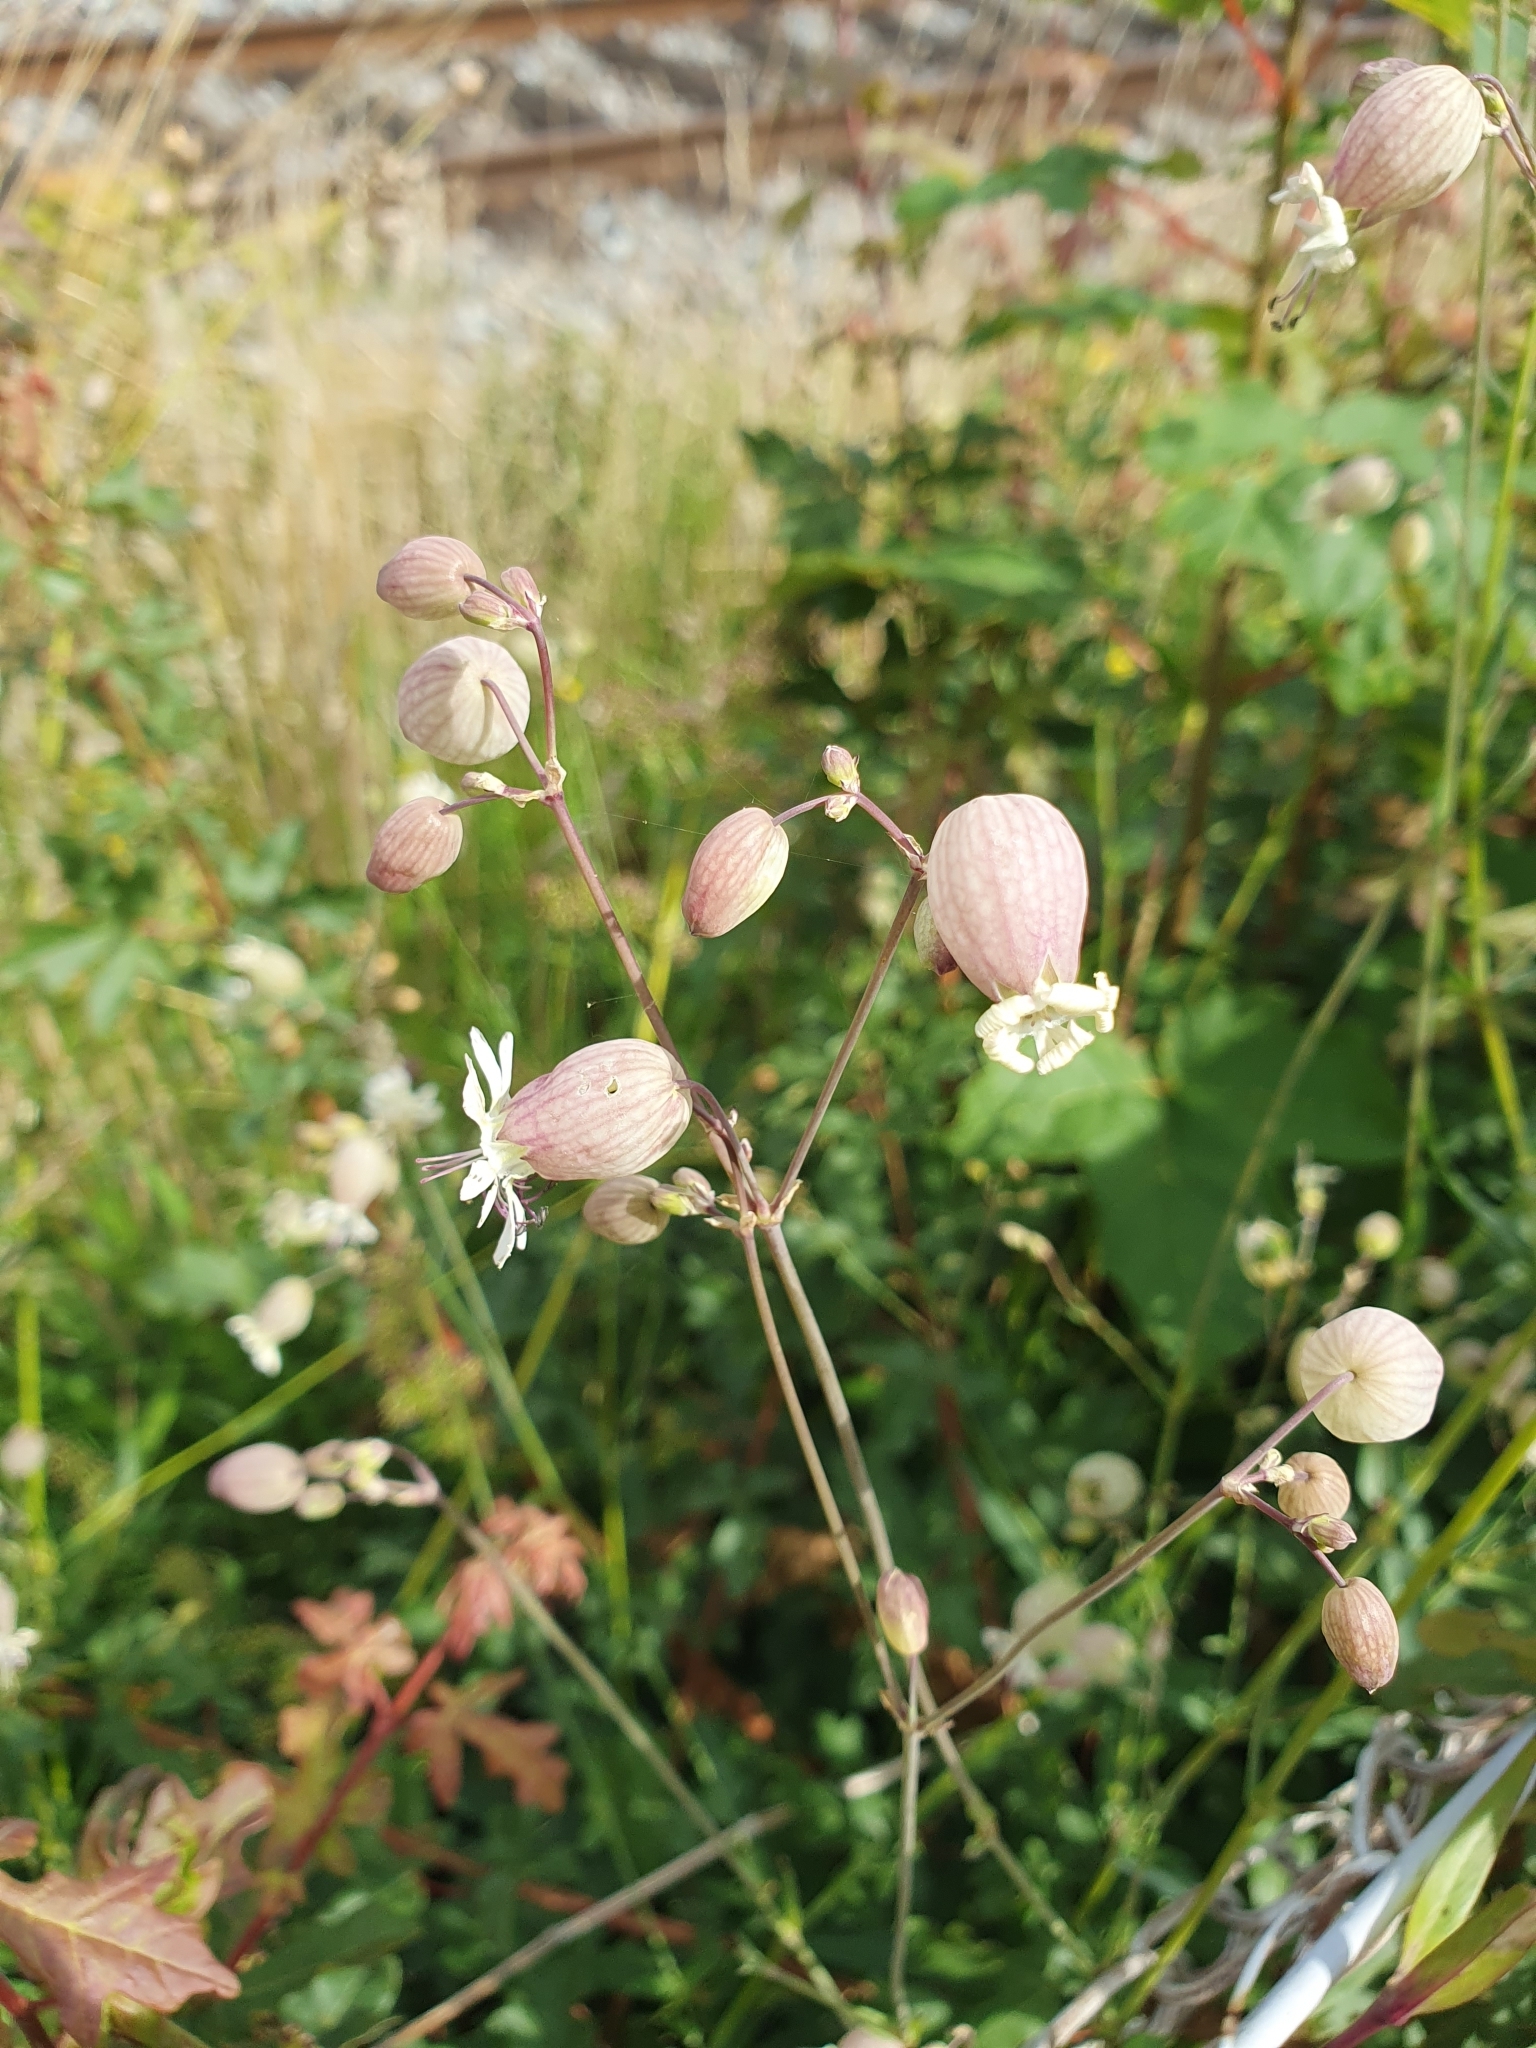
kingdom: Plantae
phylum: Tracheophyta
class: Magnoliopsida
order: Caryophyllales
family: Caryophyllaceae
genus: Silene
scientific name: Silene vulgaris
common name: Bladder campion
